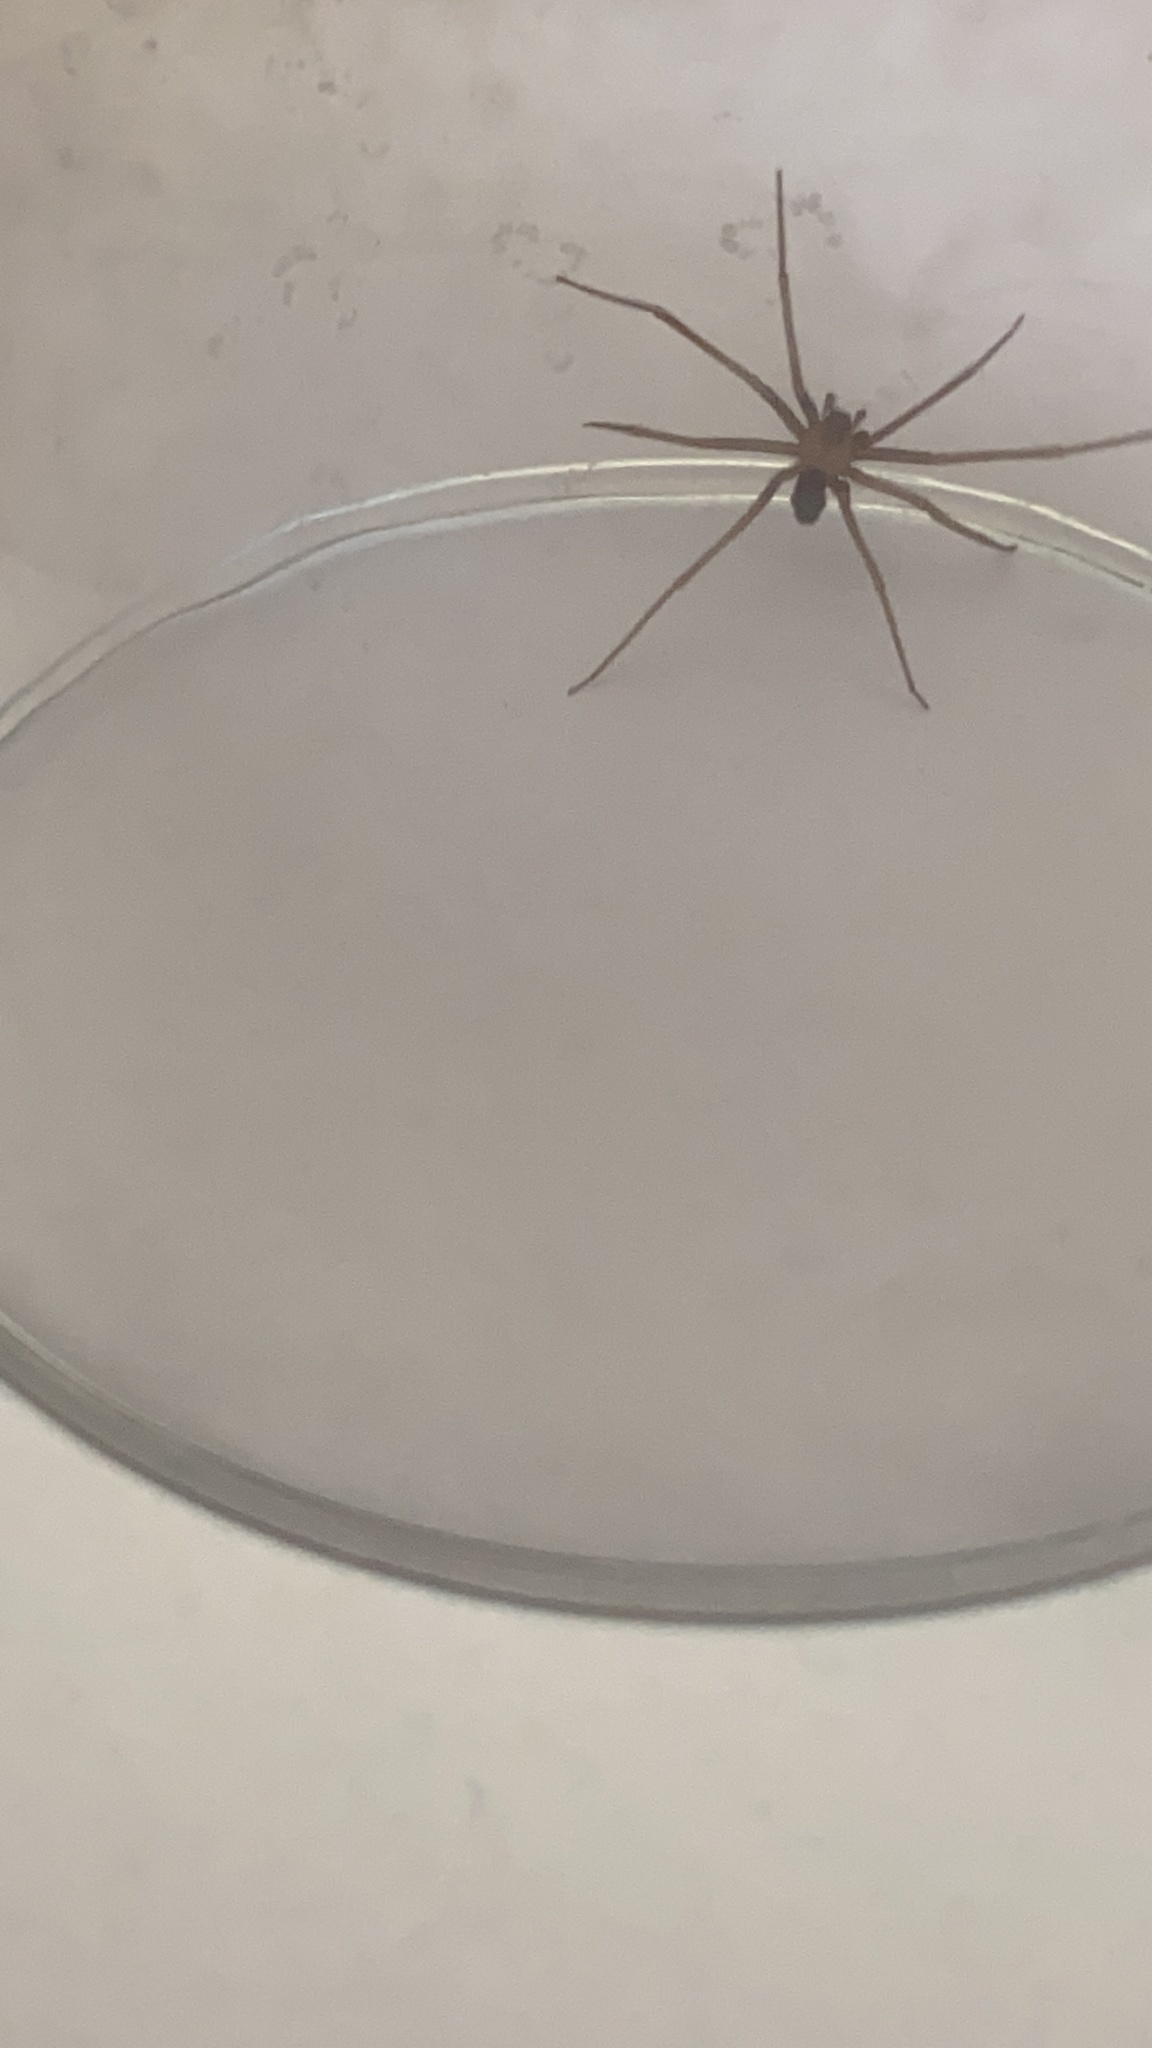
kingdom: Animalia
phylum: Arthropoda
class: Arachnida
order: Araneae
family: Sicariidae
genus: Loxosceles
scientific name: Loxosceles rufescens
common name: Mediterranean recluse spider
